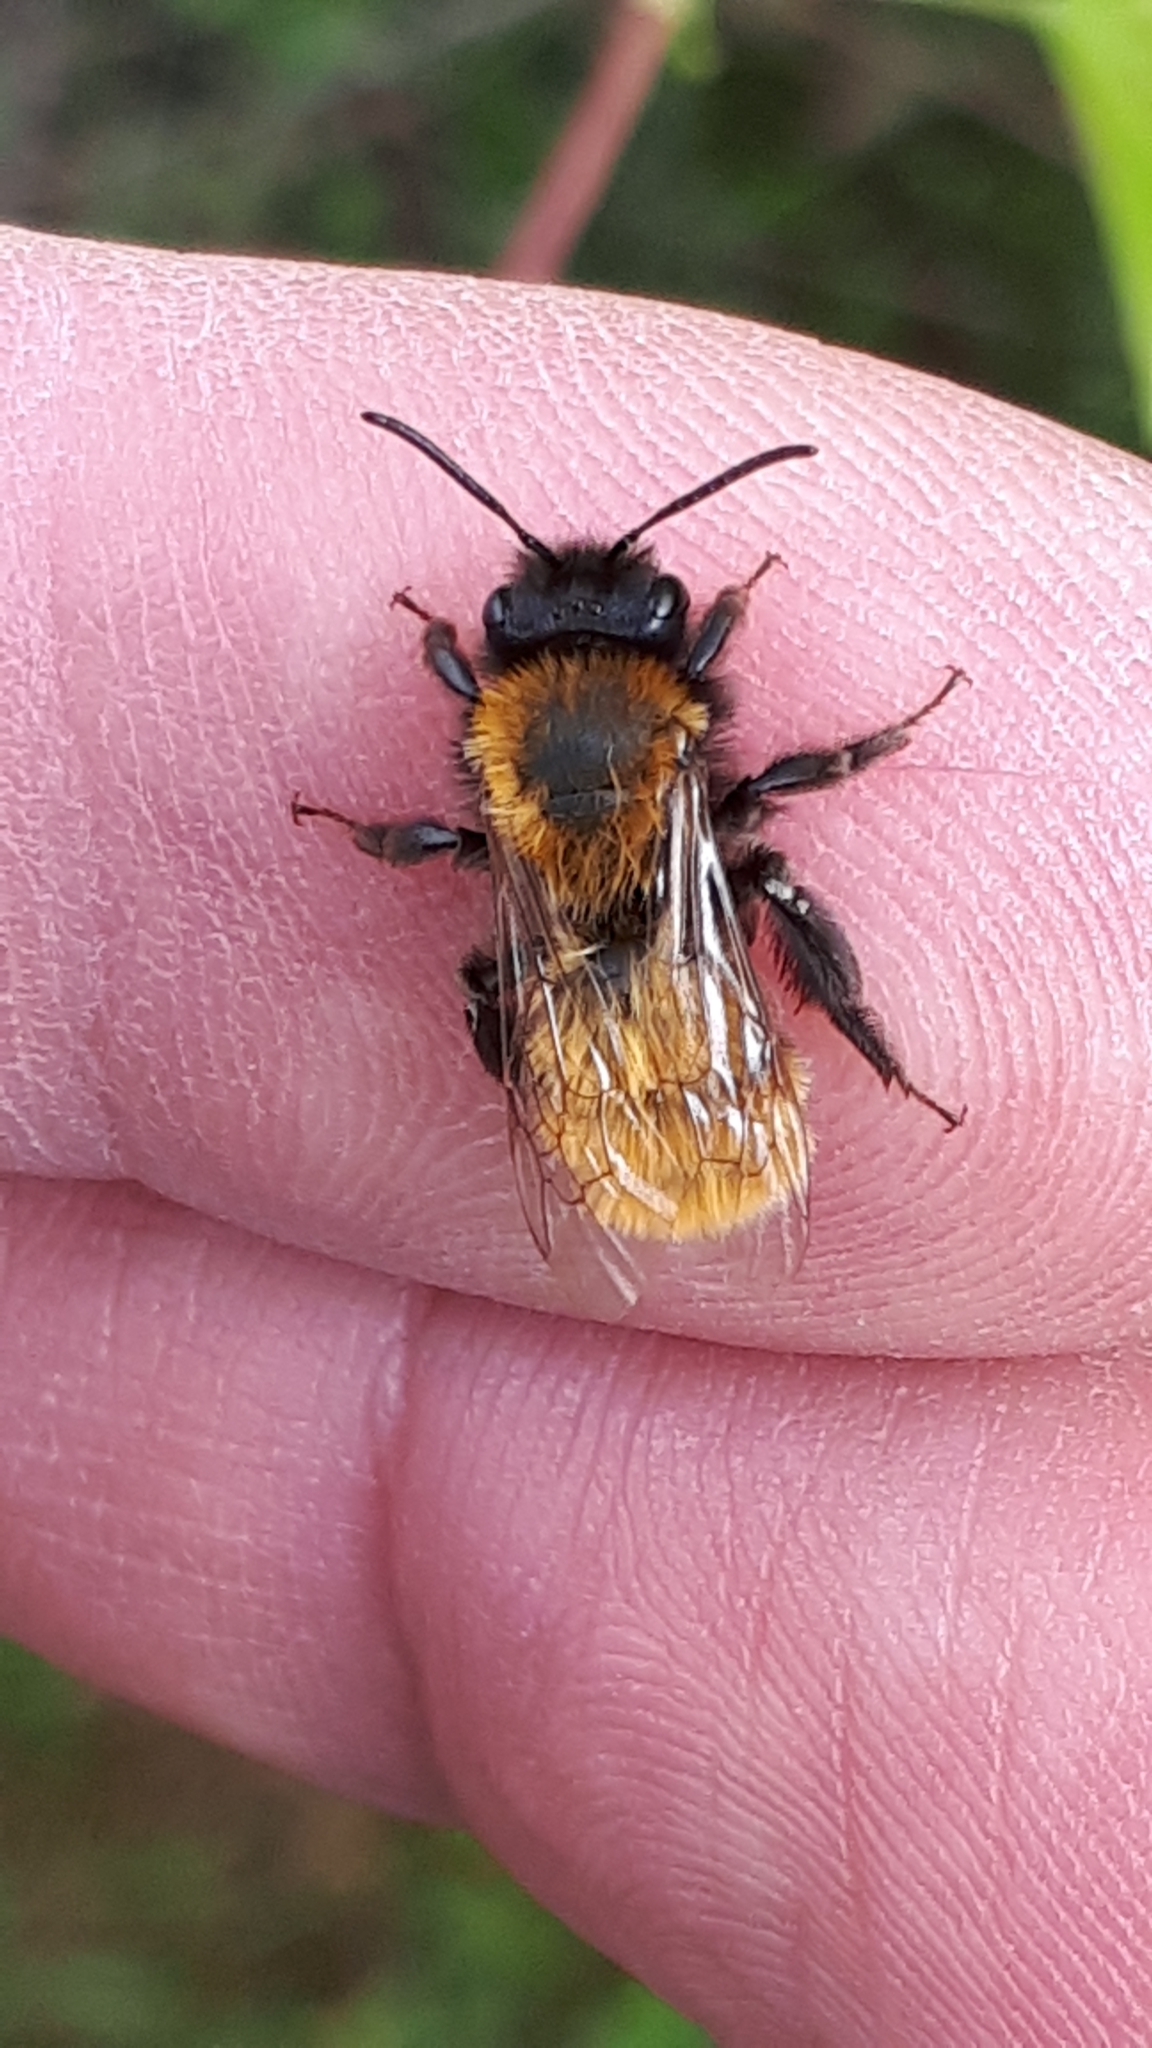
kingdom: Animalia
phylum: Arthropoda
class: Insecta
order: Hymenoptera
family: Andrenidae
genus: Andrena
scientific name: Andrena fulva
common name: Tawny mining bee
